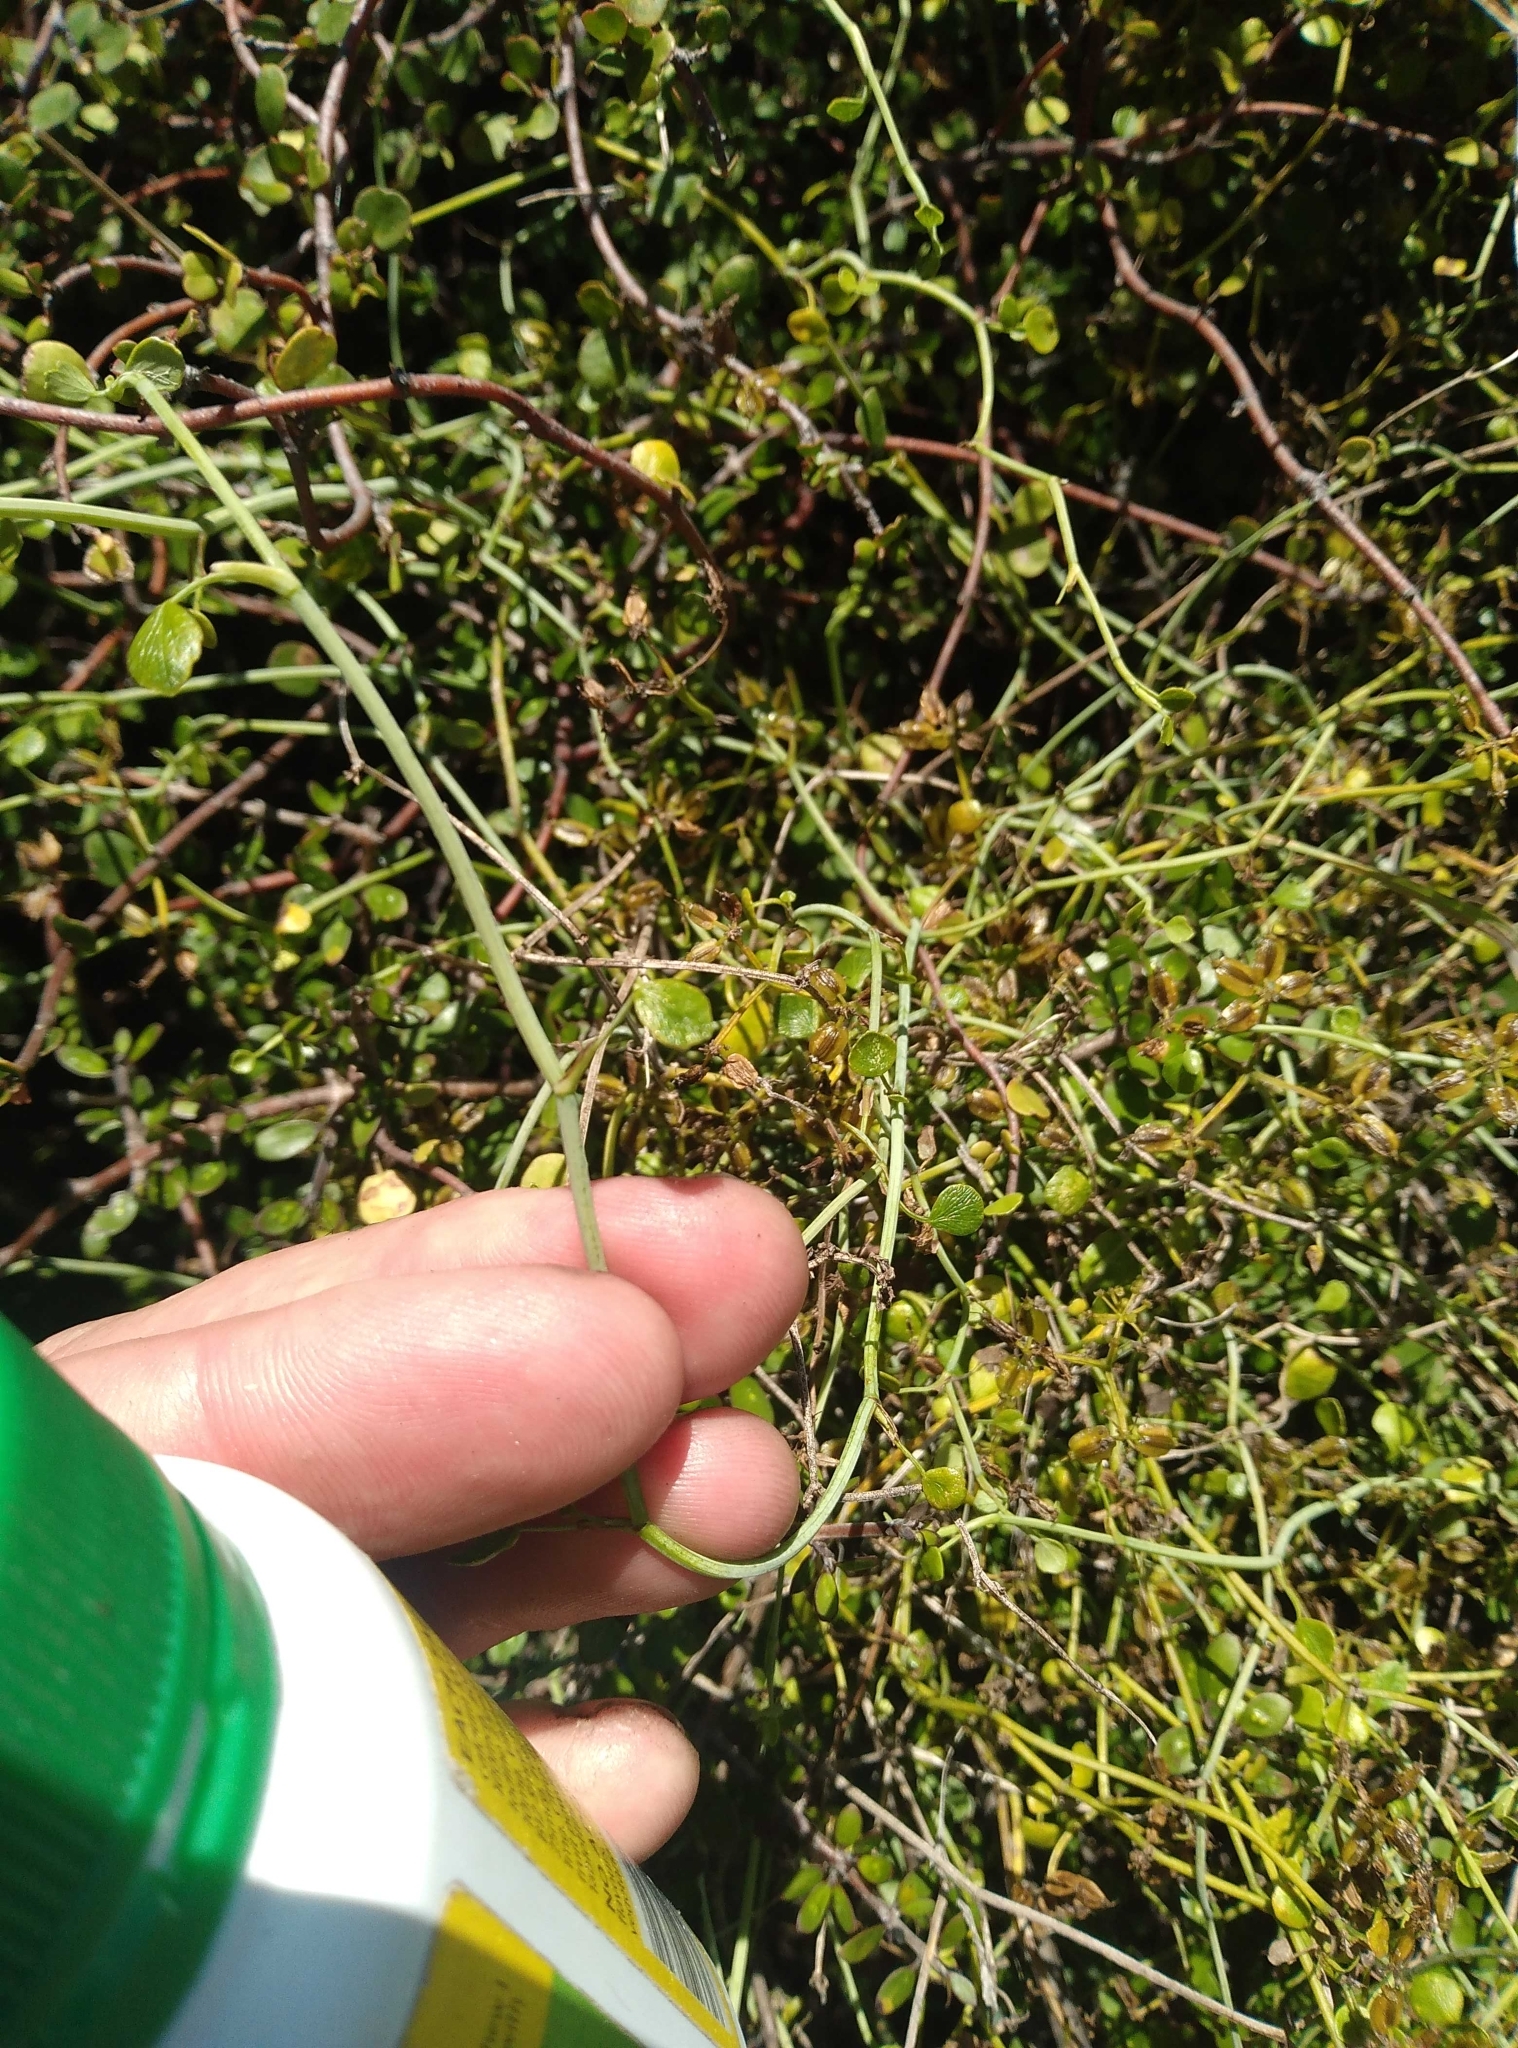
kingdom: Plantae
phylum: Tracheophyta
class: Magnoliopsida
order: Apiales
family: Apiaceae
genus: Scandia
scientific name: Scandia geniculata
